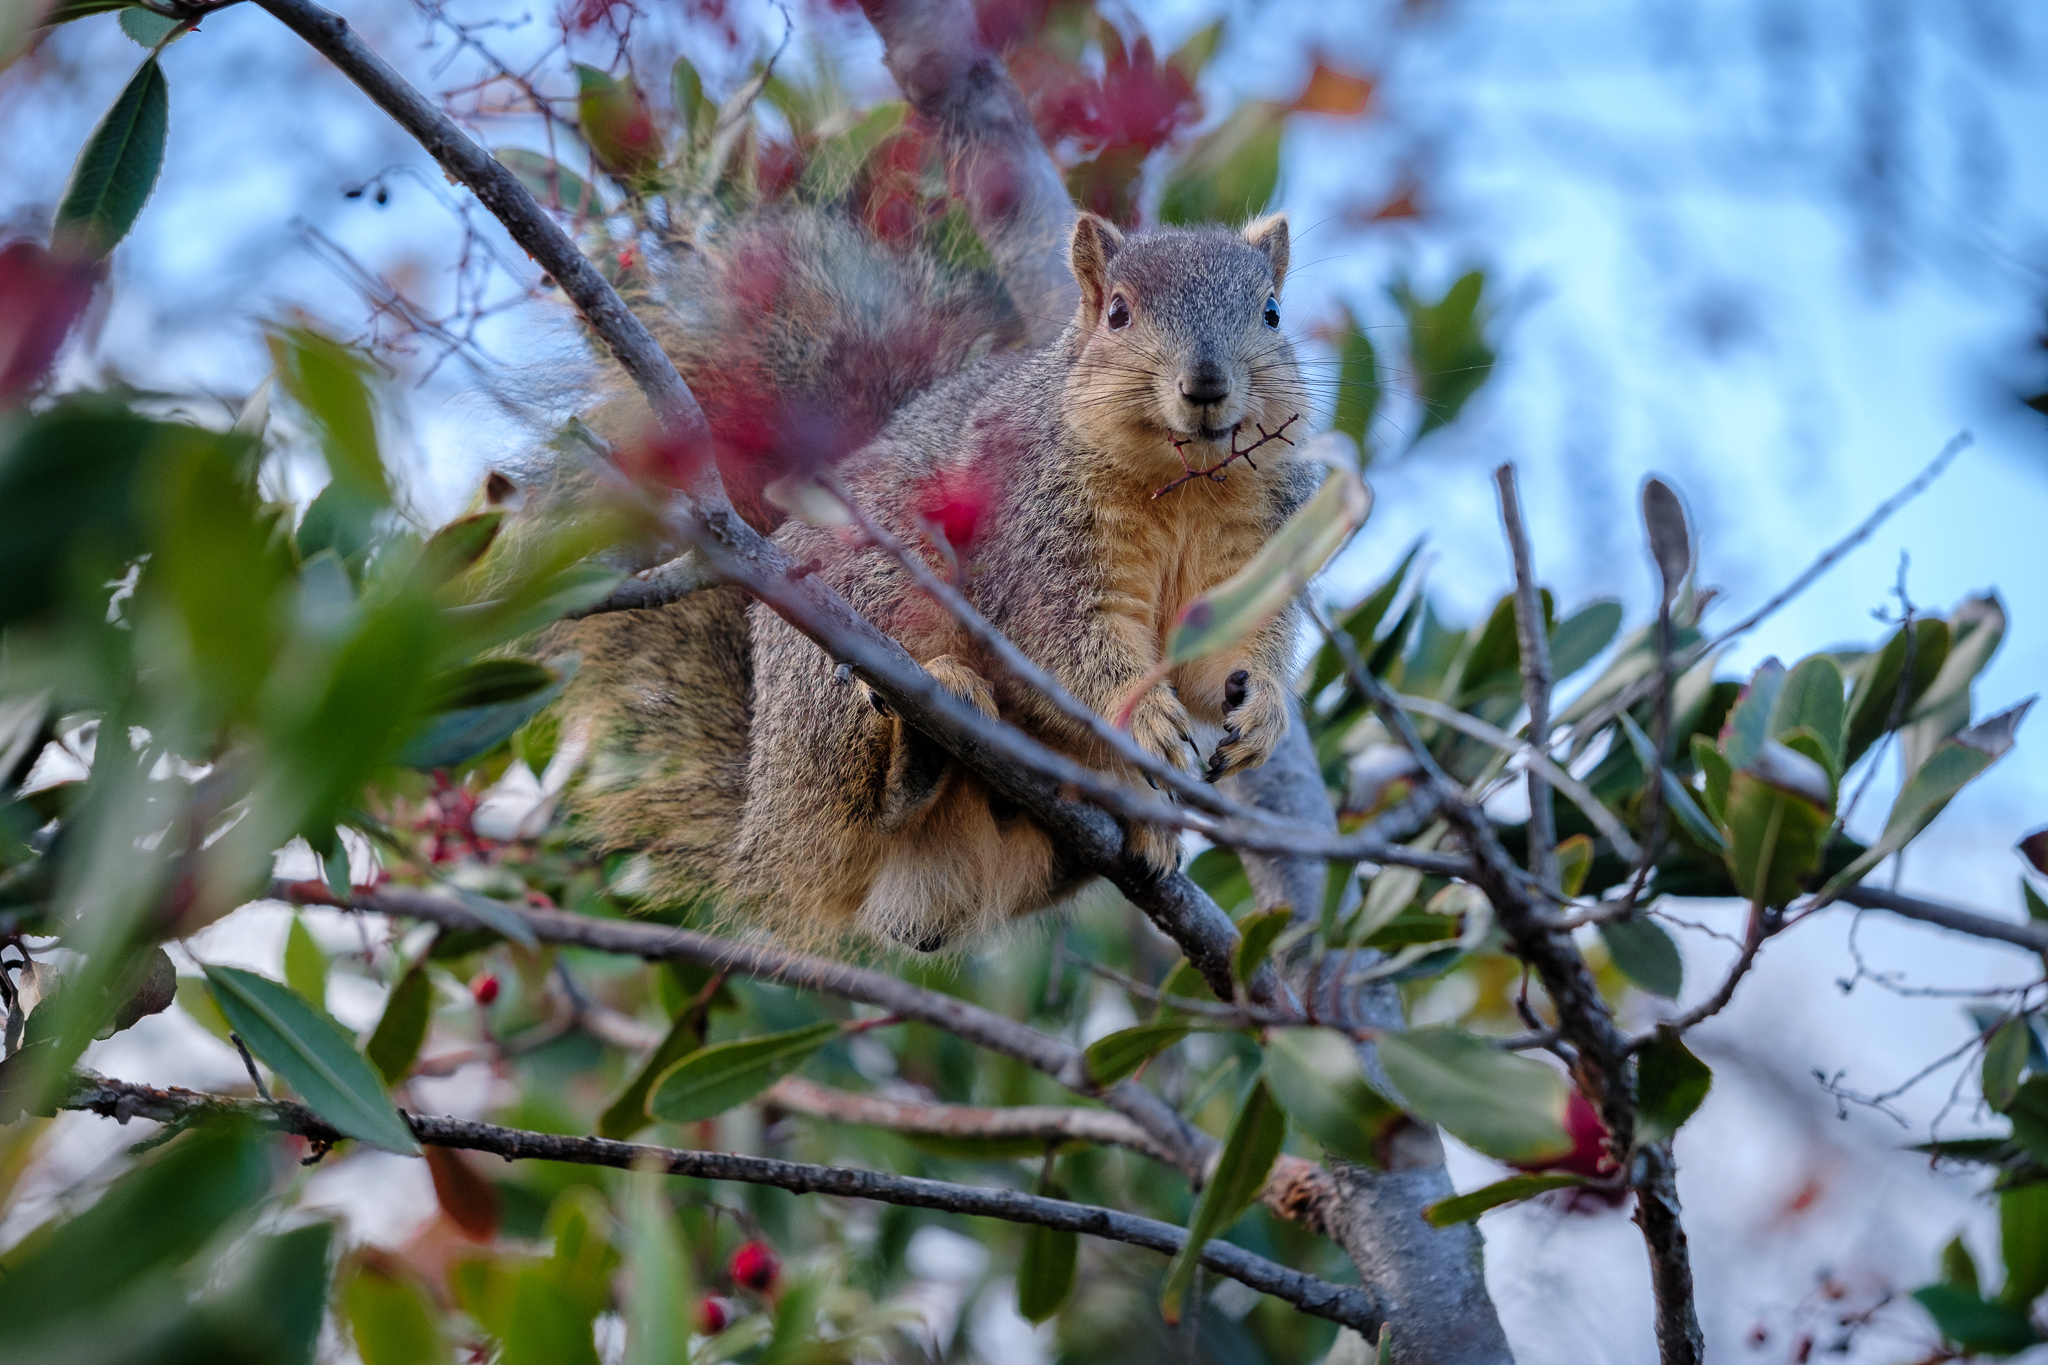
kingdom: Animalia
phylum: Chordata
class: Mammalia
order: Rodentia
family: Sciuridae
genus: Sciurus
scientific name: Sciurus niger
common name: Fox squirrel
